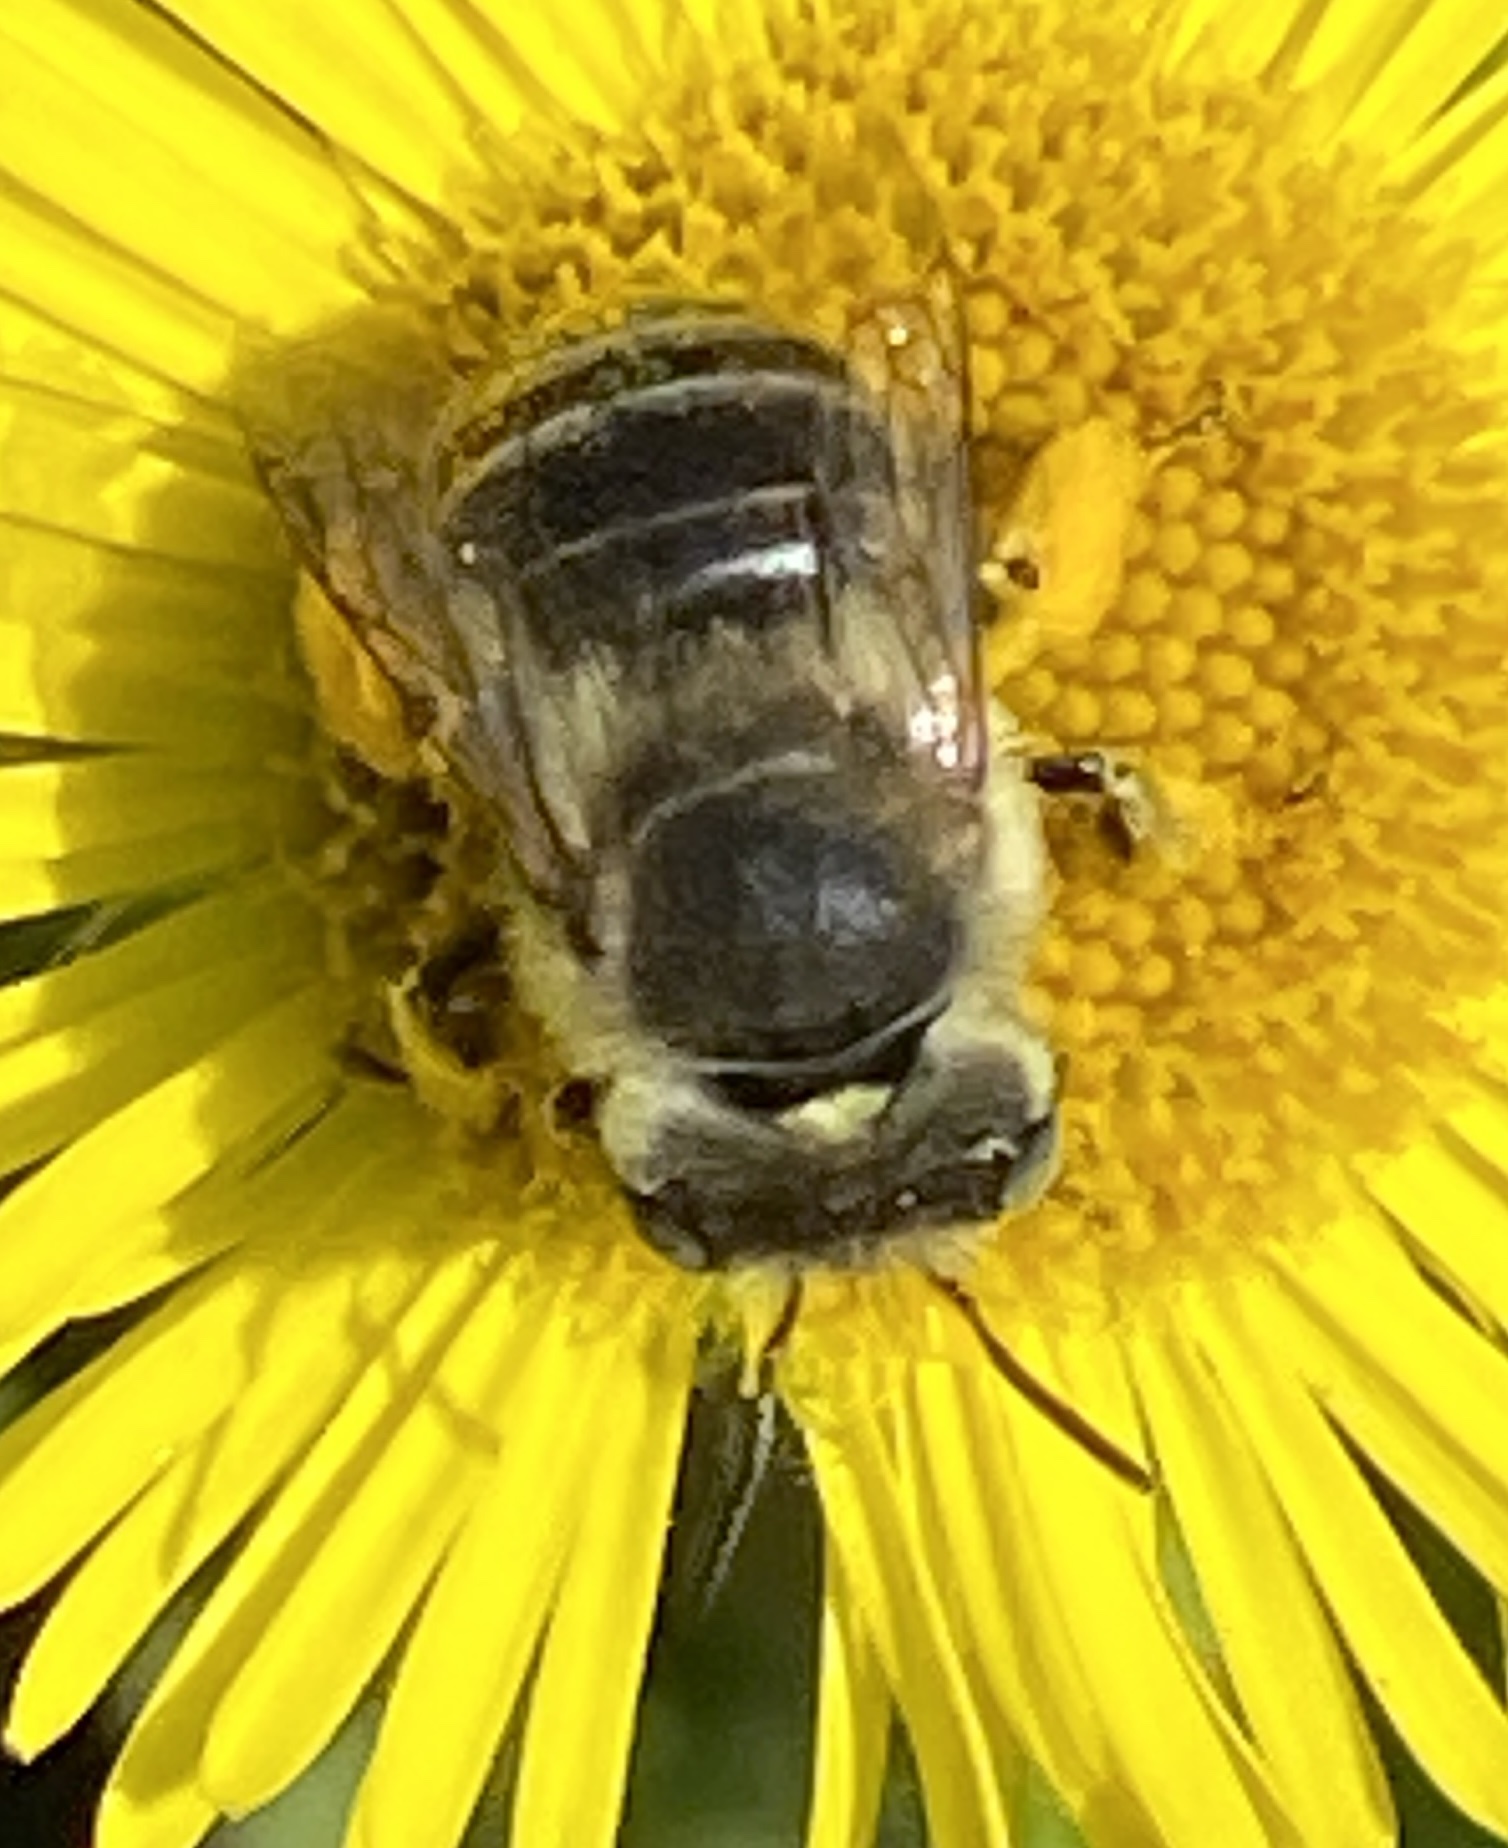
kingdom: Animalia
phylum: Arthropoda
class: Insecta
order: Hymenoptera
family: Apidae
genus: Anthophora
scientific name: Anthophora bimaculata
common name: Green-eyed flower bee
